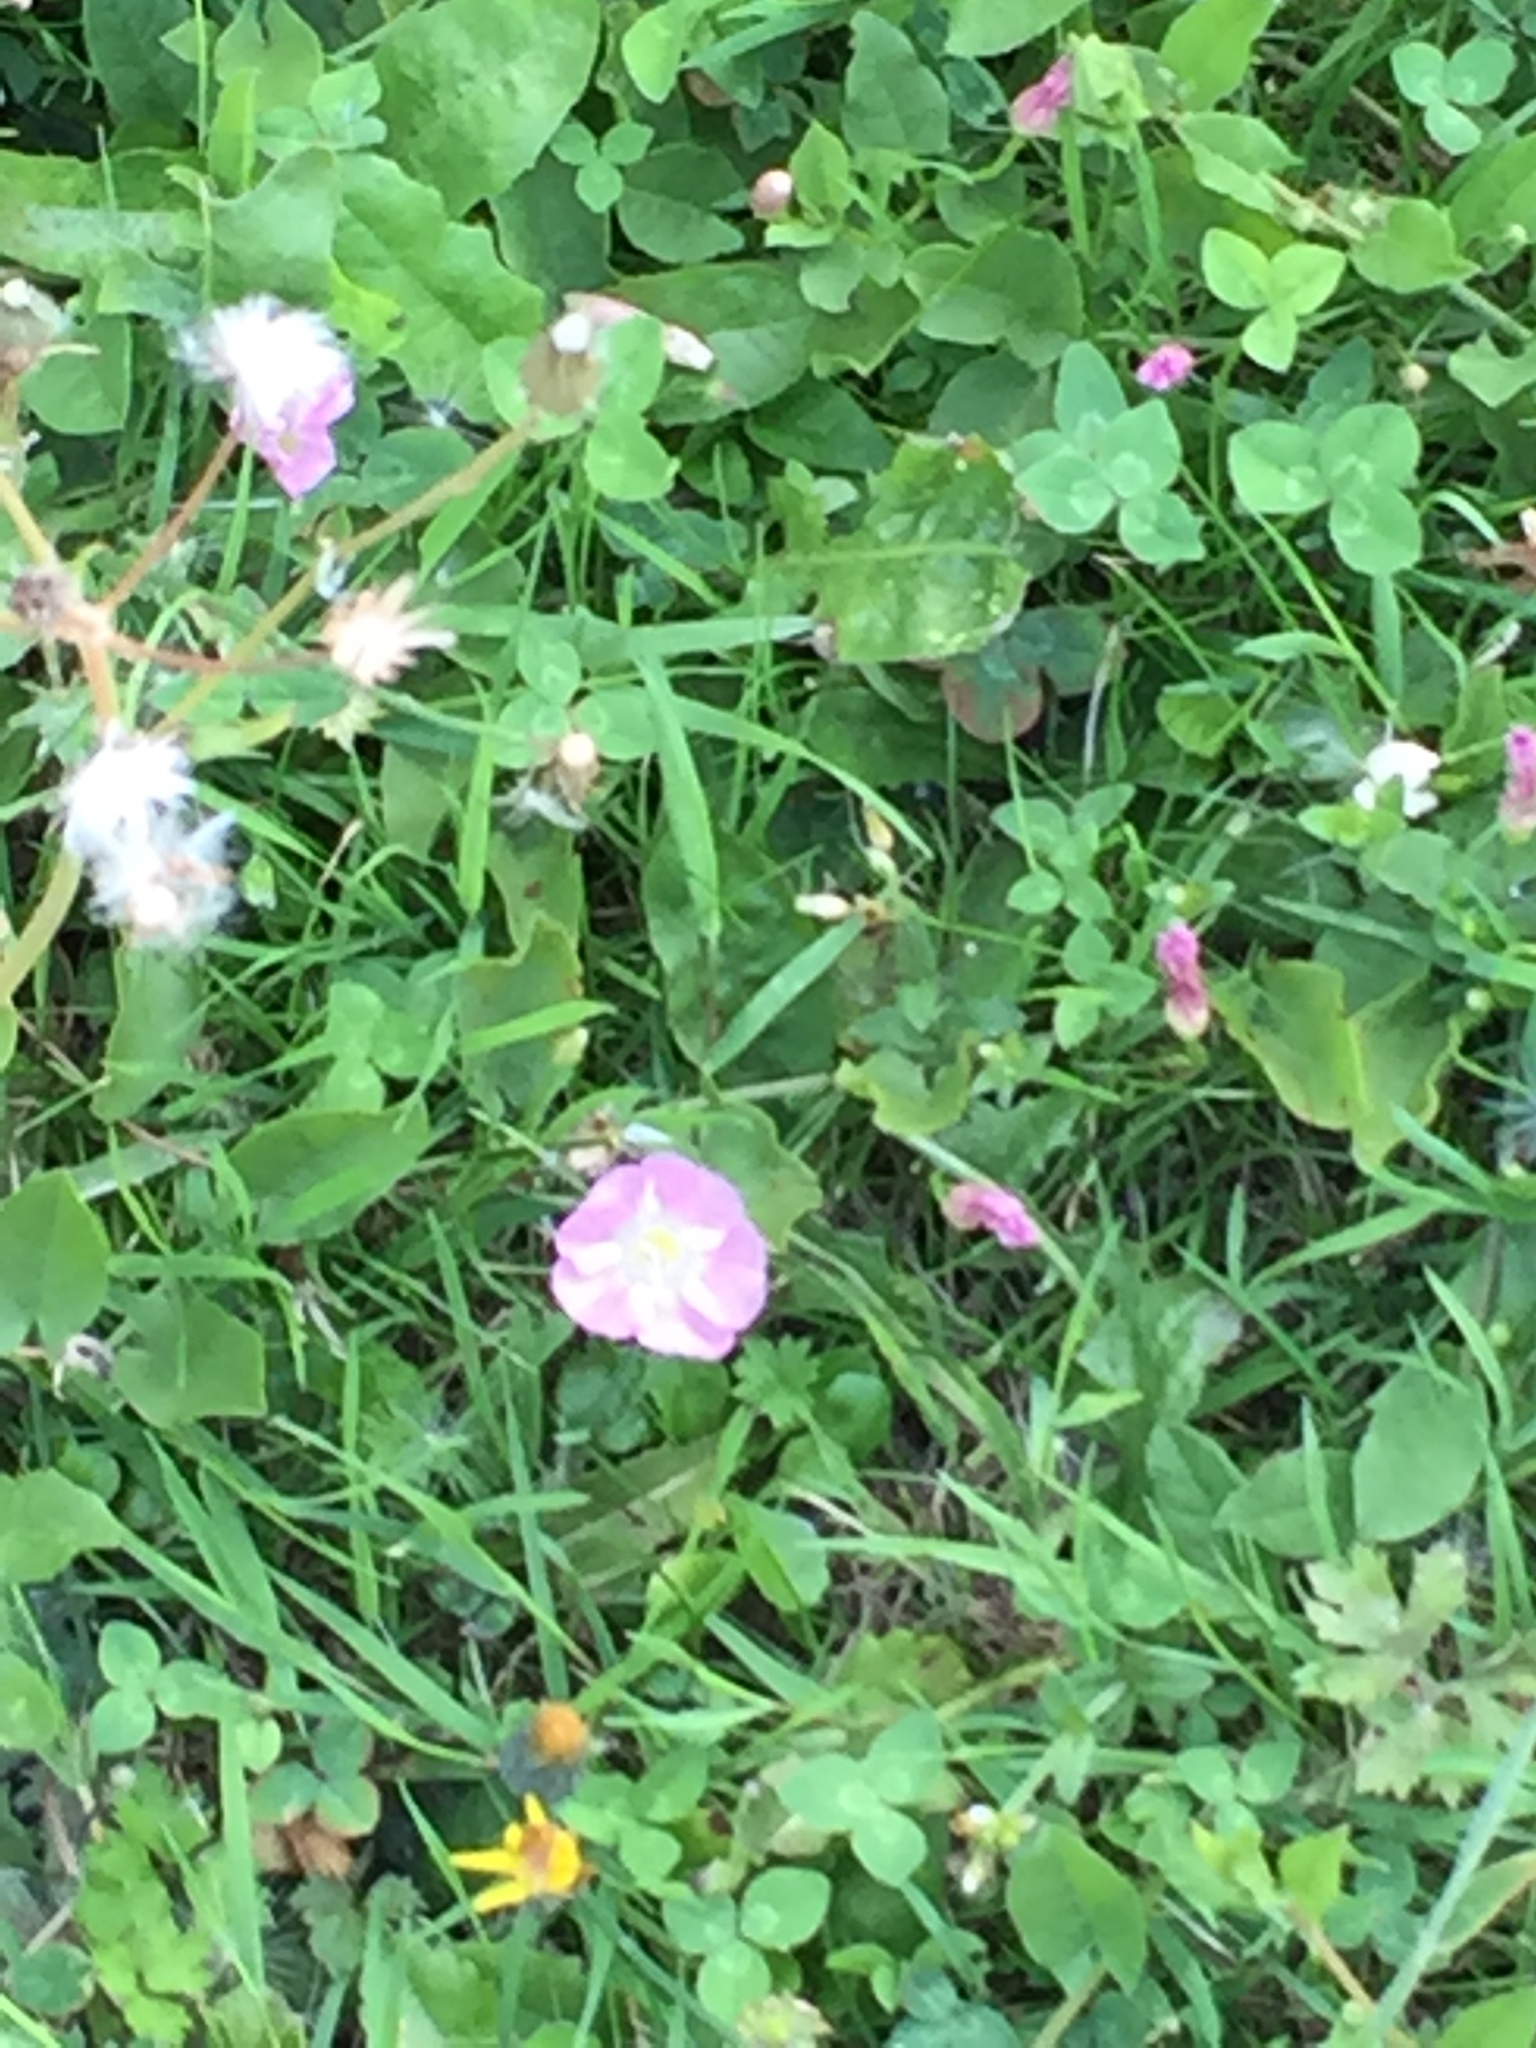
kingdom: Plantae
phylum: Tracheophyta
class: Magnoliopsida
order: Solanales
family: Convolvulaceae
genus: Convolvulus
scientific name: Convolvulus arvensis
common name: Field bindweed
